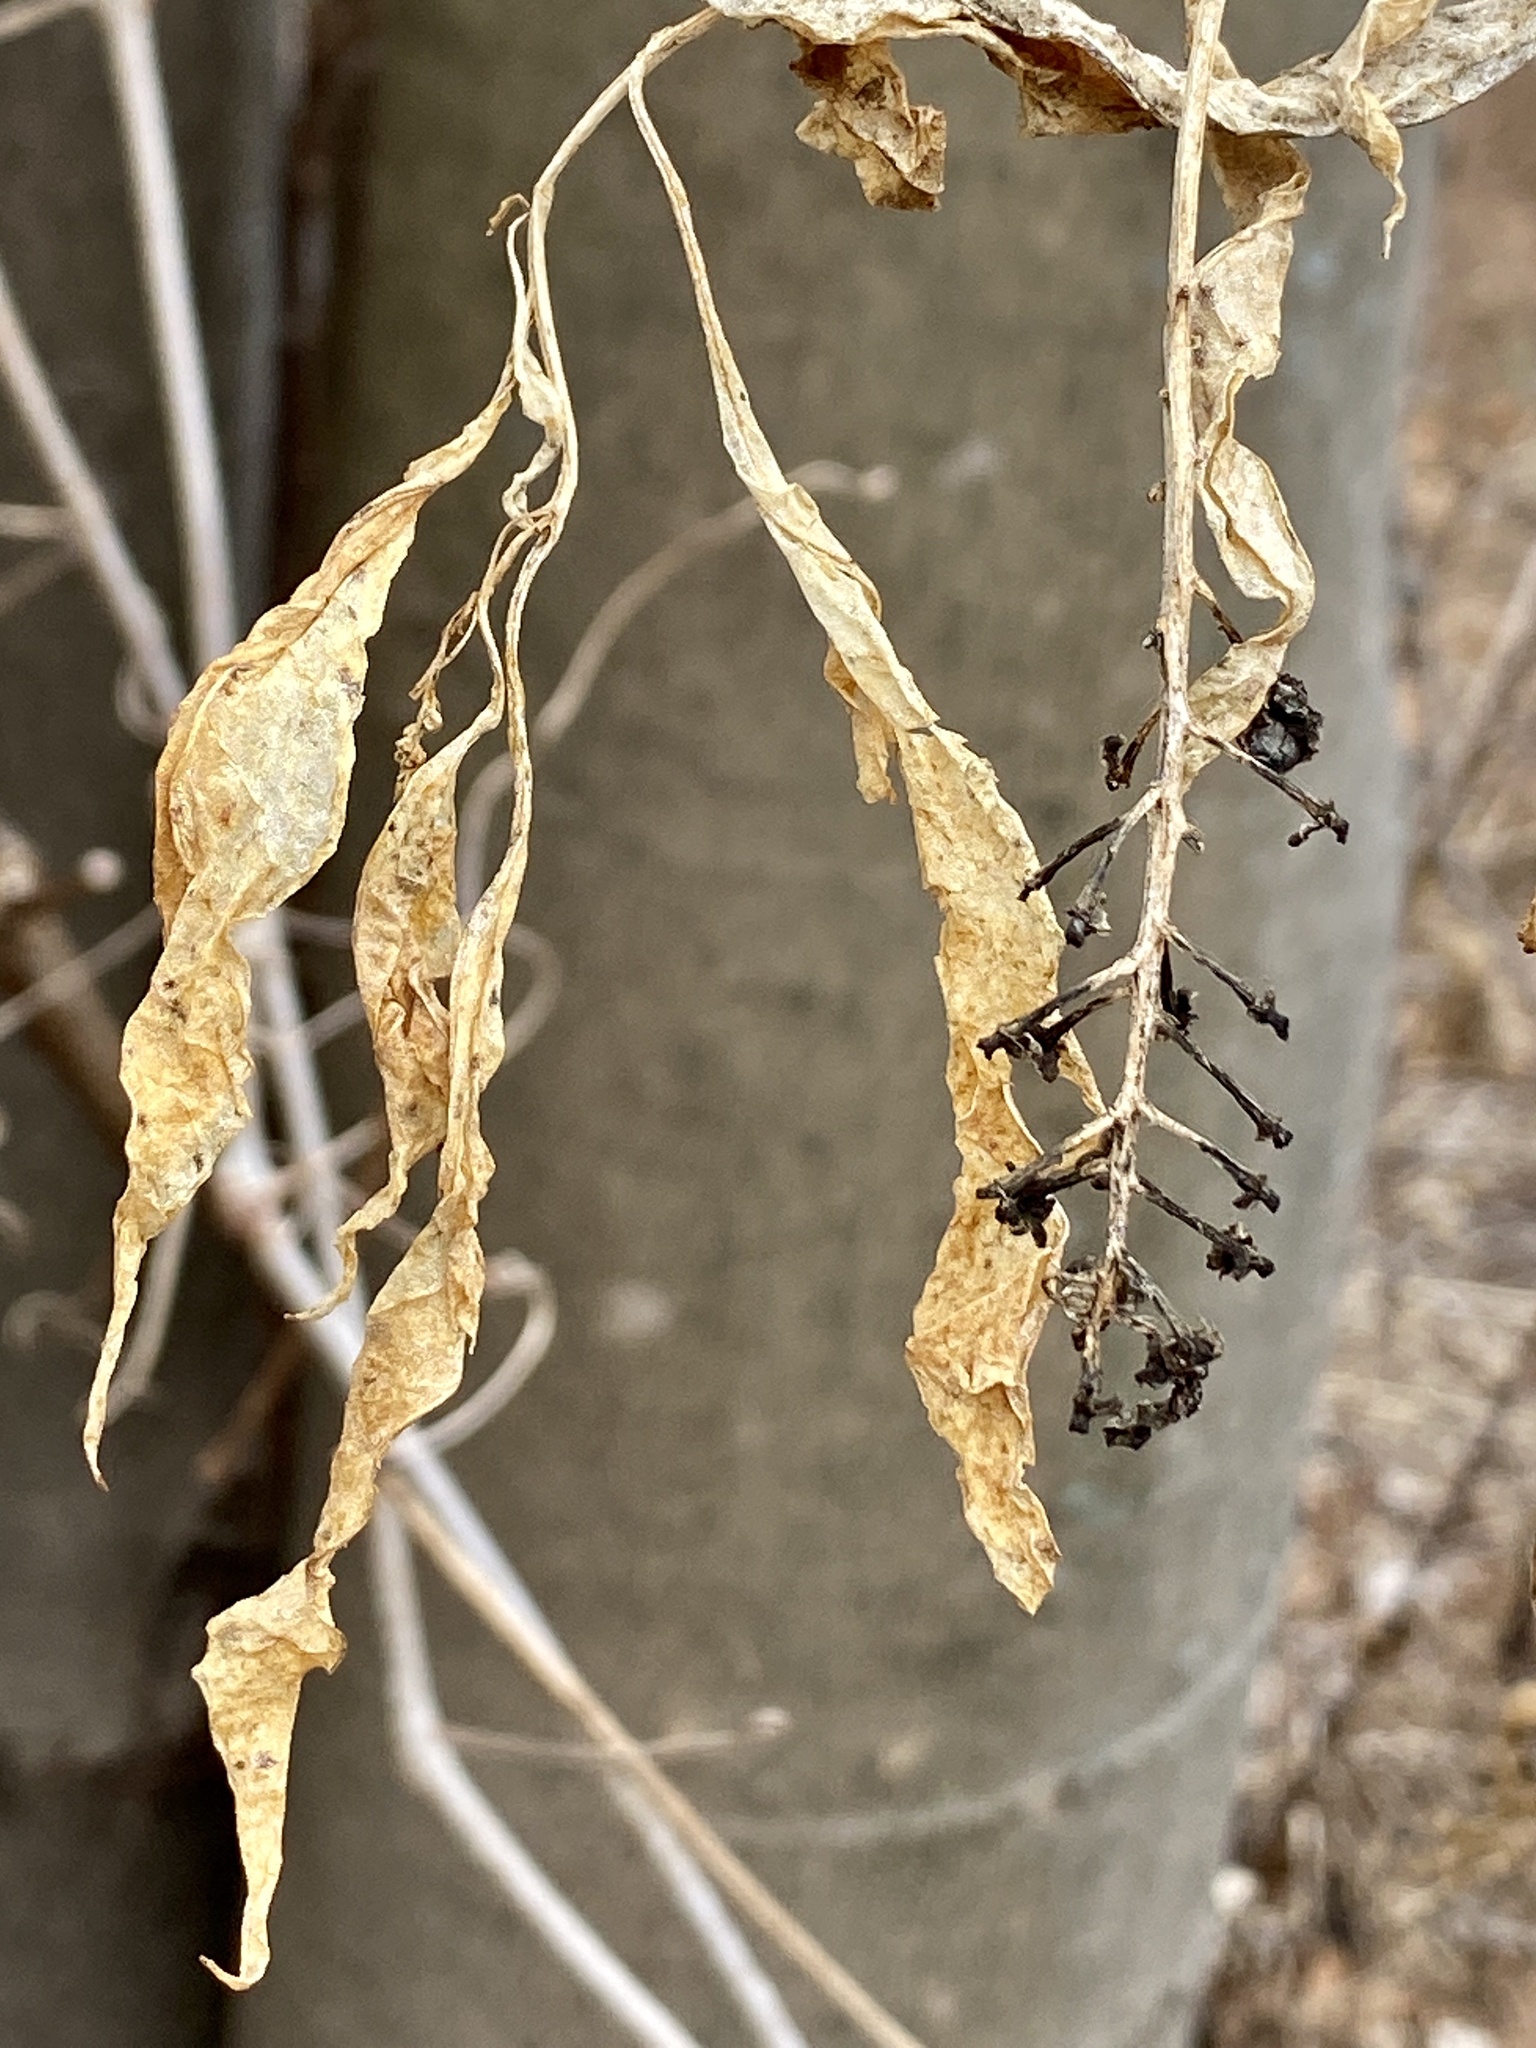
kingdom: Plantae
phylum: Tracheophyta
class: Magnoliopsida
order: Caryophyllales
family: Phytolaccaceae
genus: Phytolacca
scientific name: Phytolacca americana
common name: American pokeweed
